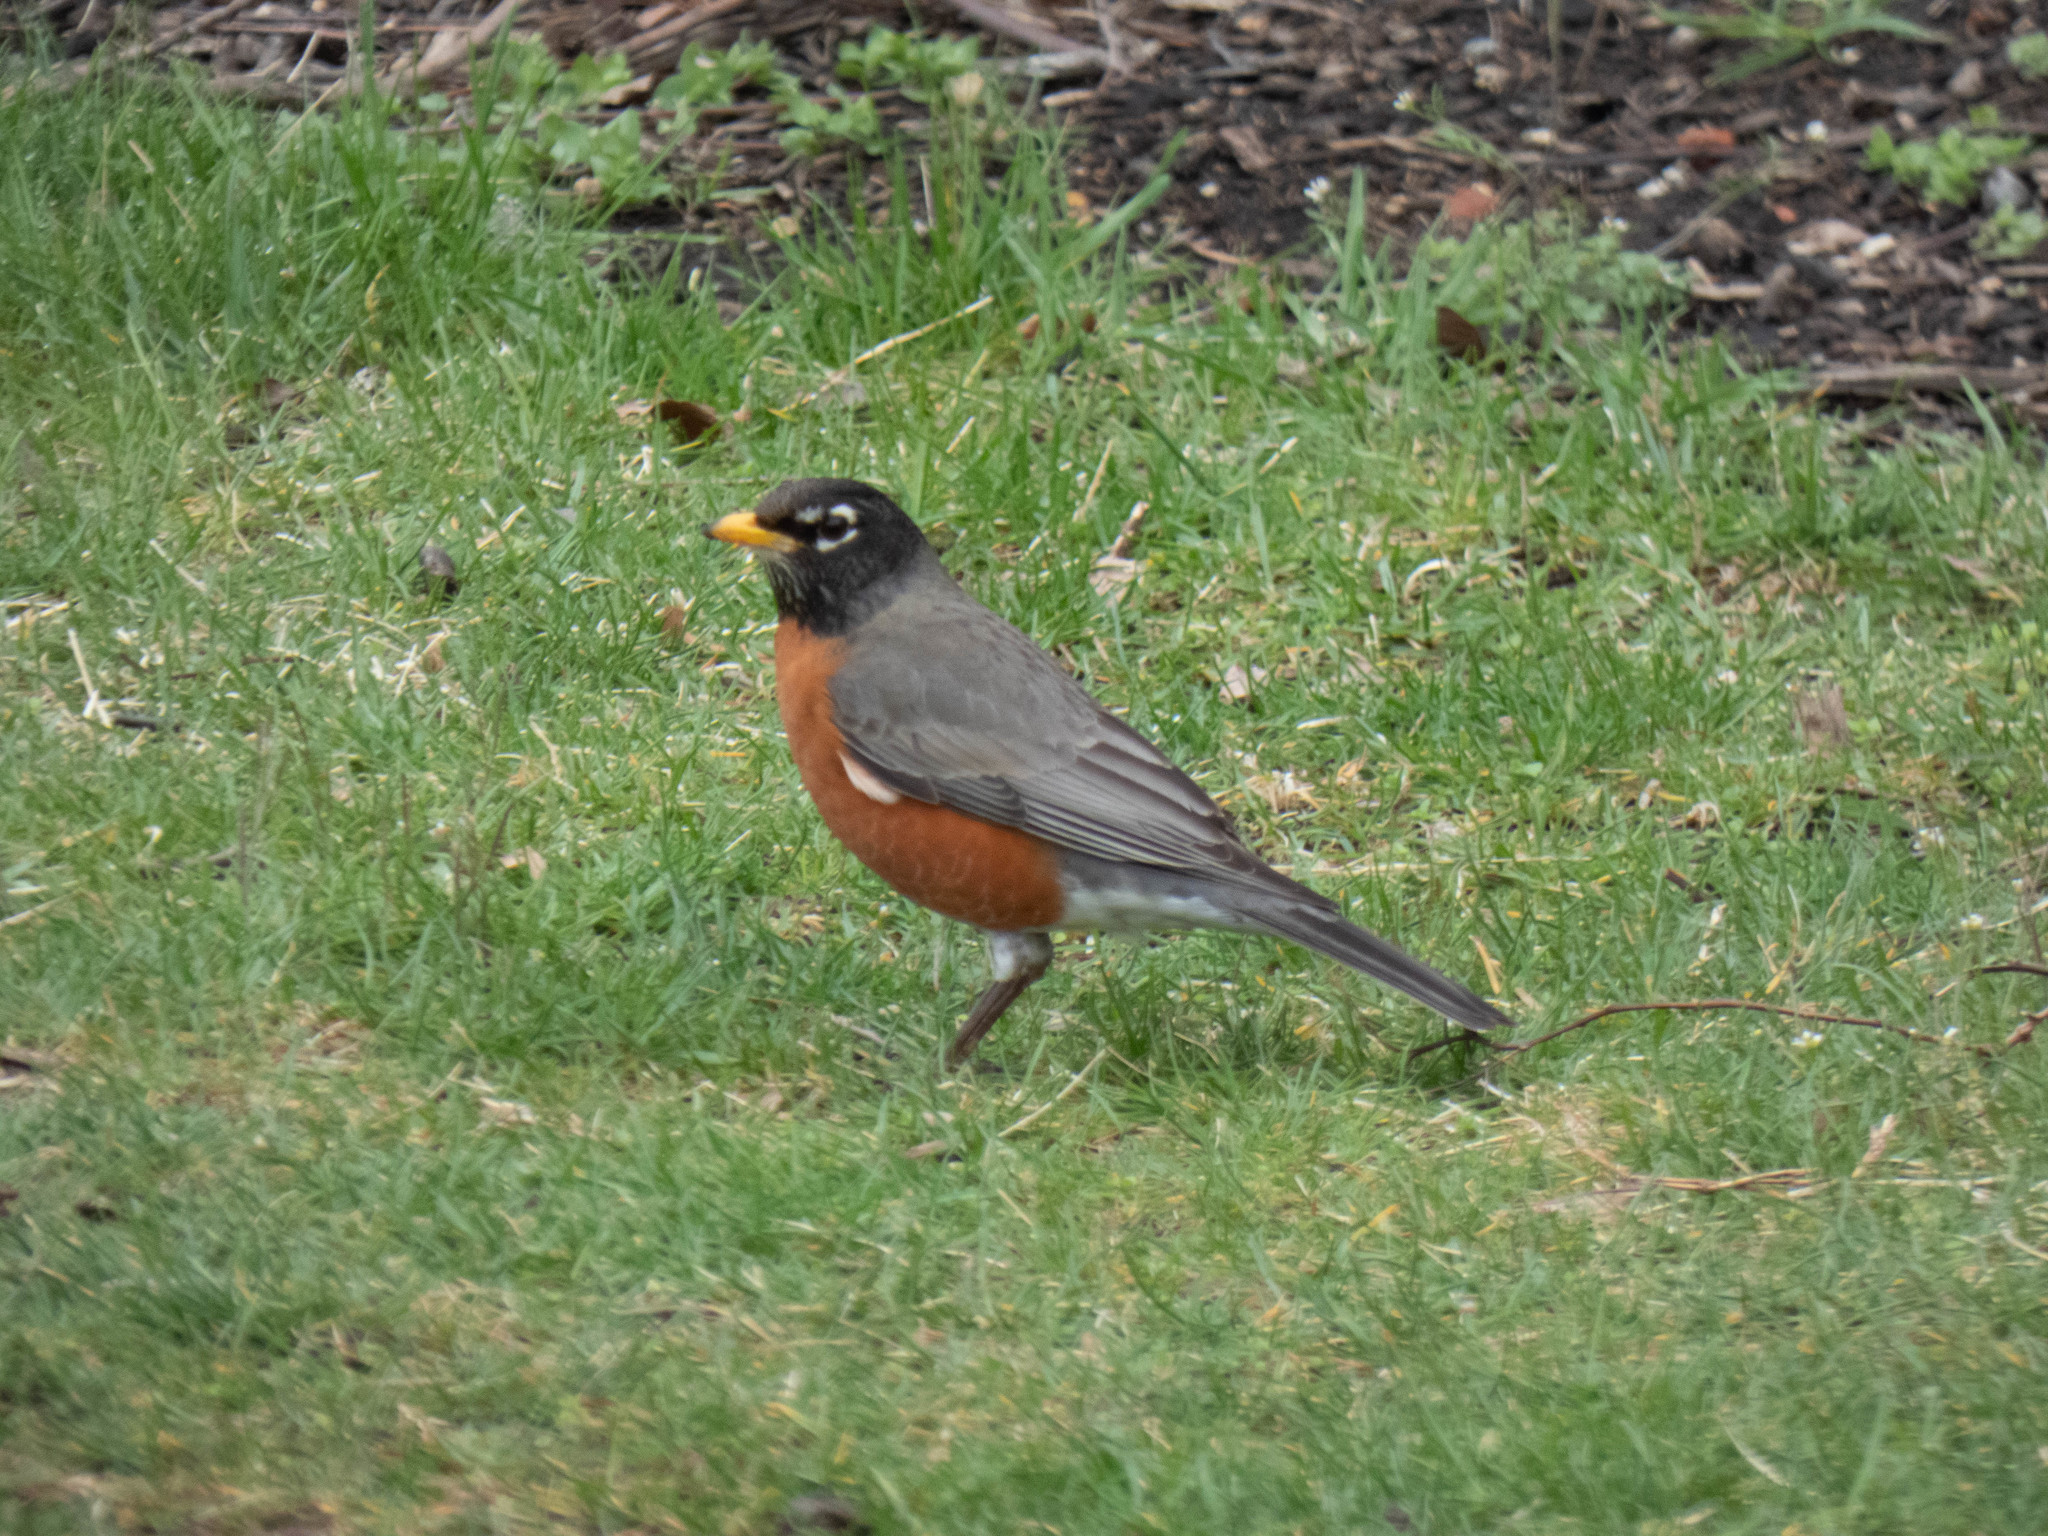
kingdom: Animalia
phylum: Chordata
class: Aves
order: Passeriformes
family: Turdidae
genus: Turdus
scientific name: Turdus migratorius
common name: American robin
